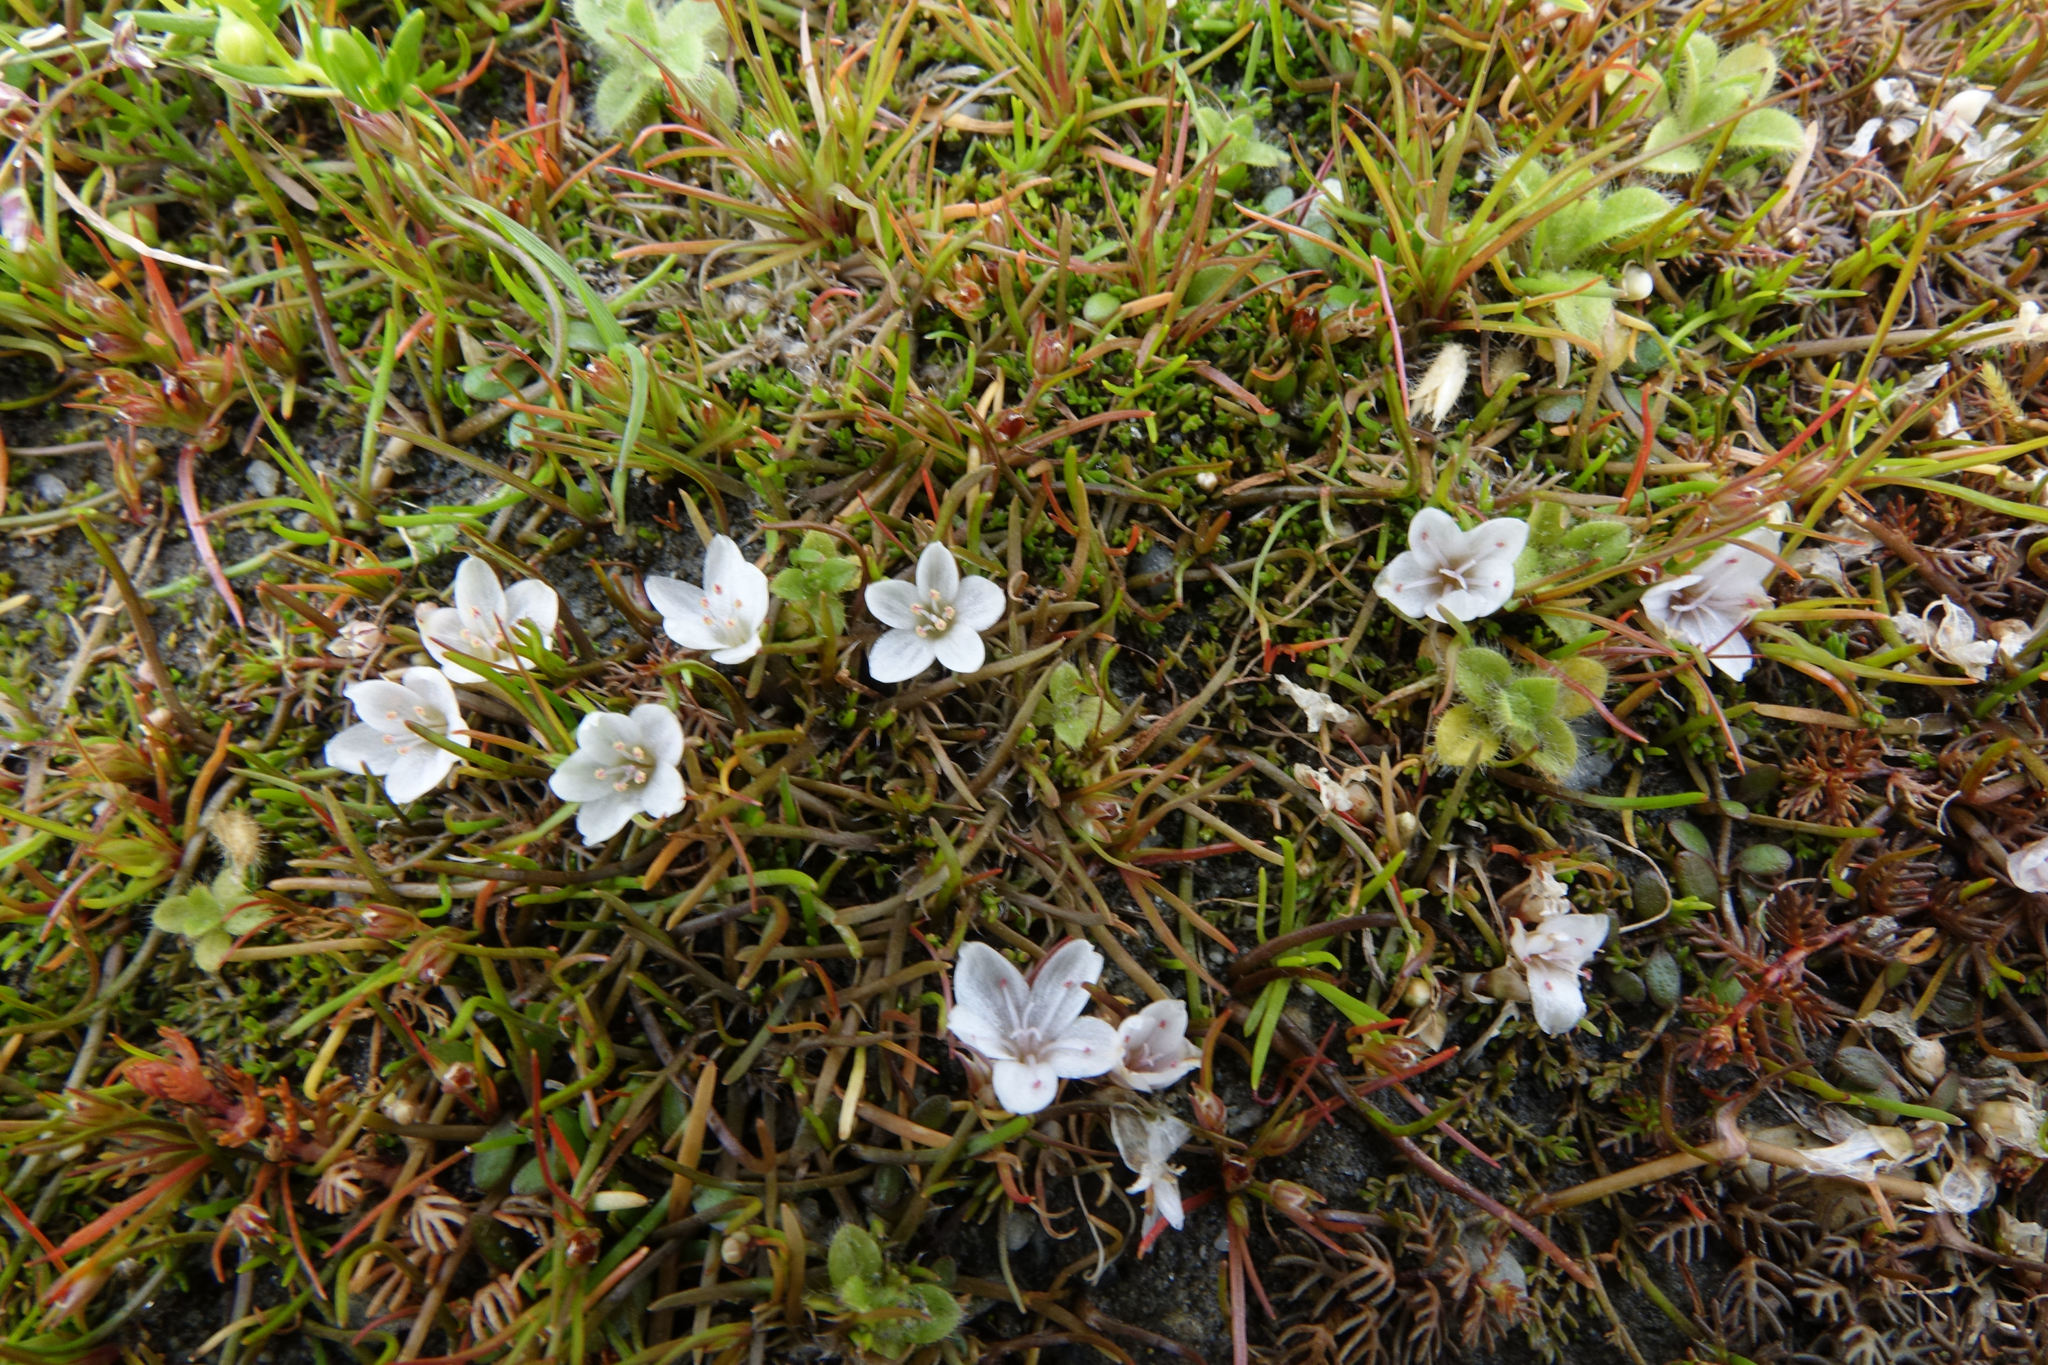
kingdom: Plantae
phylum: Tracheophyta
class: Magnoliopsida
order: Caryophyllales
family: Montiaceae
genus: Montia
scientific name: Montia angustifolia
